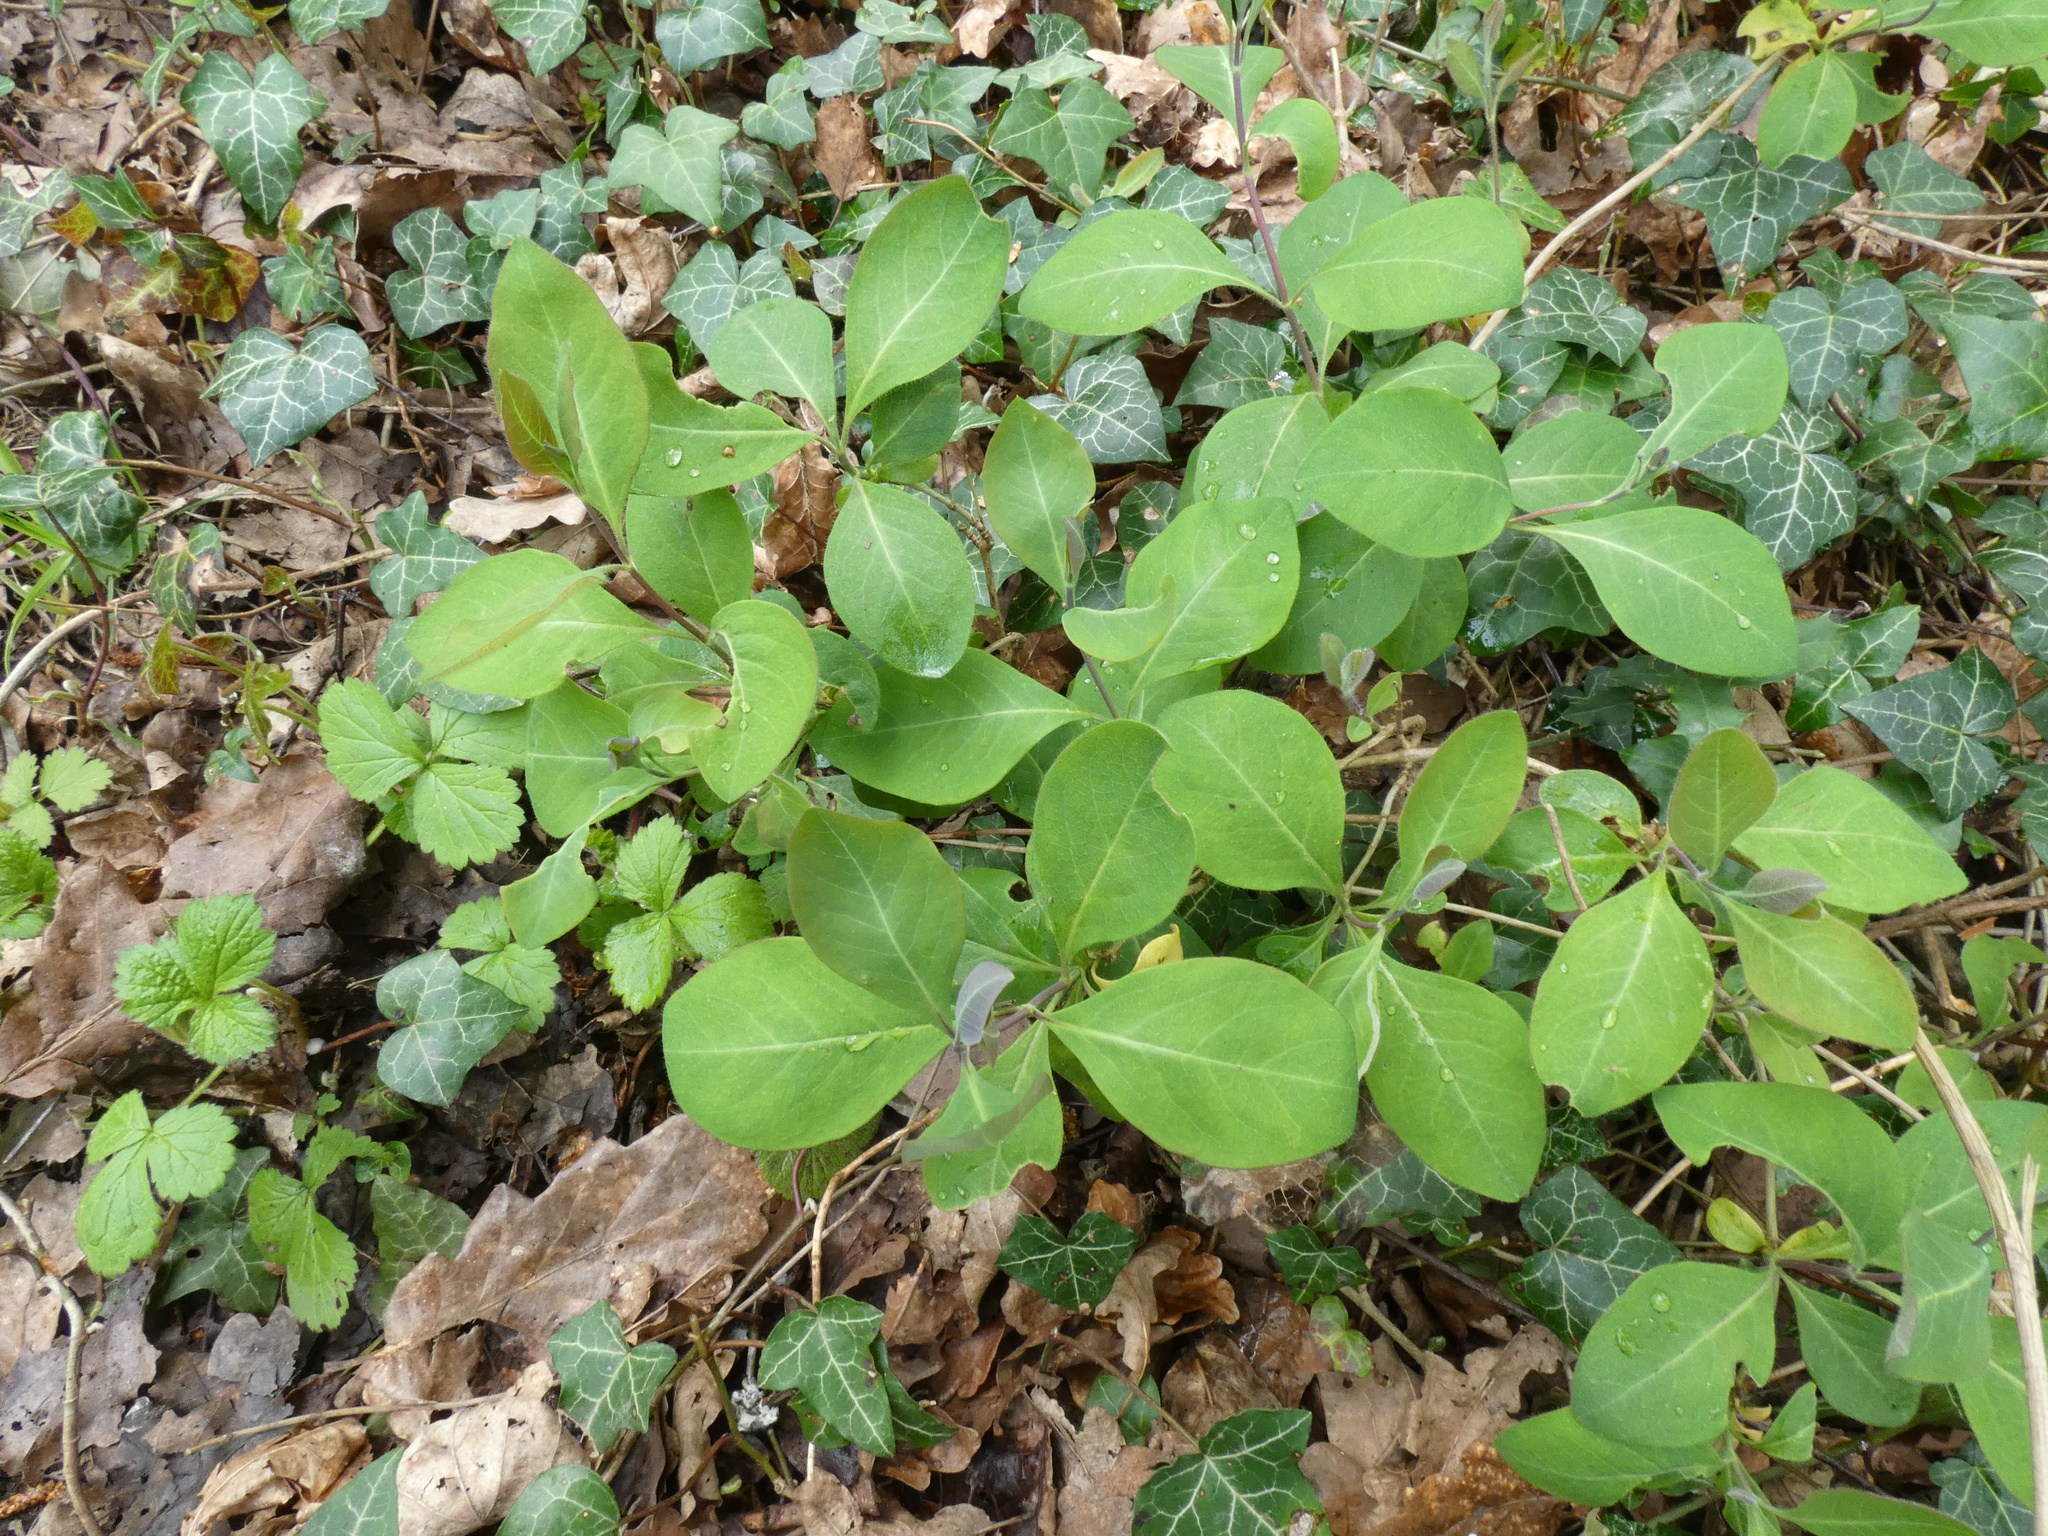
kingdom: Plantae
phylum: Tracheophyta
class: Magnoliopsida
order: Dipsacales
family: Caprifoliaceae
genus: Lonicera
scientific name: Lonicera periclymenum
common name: European honeysuckle
